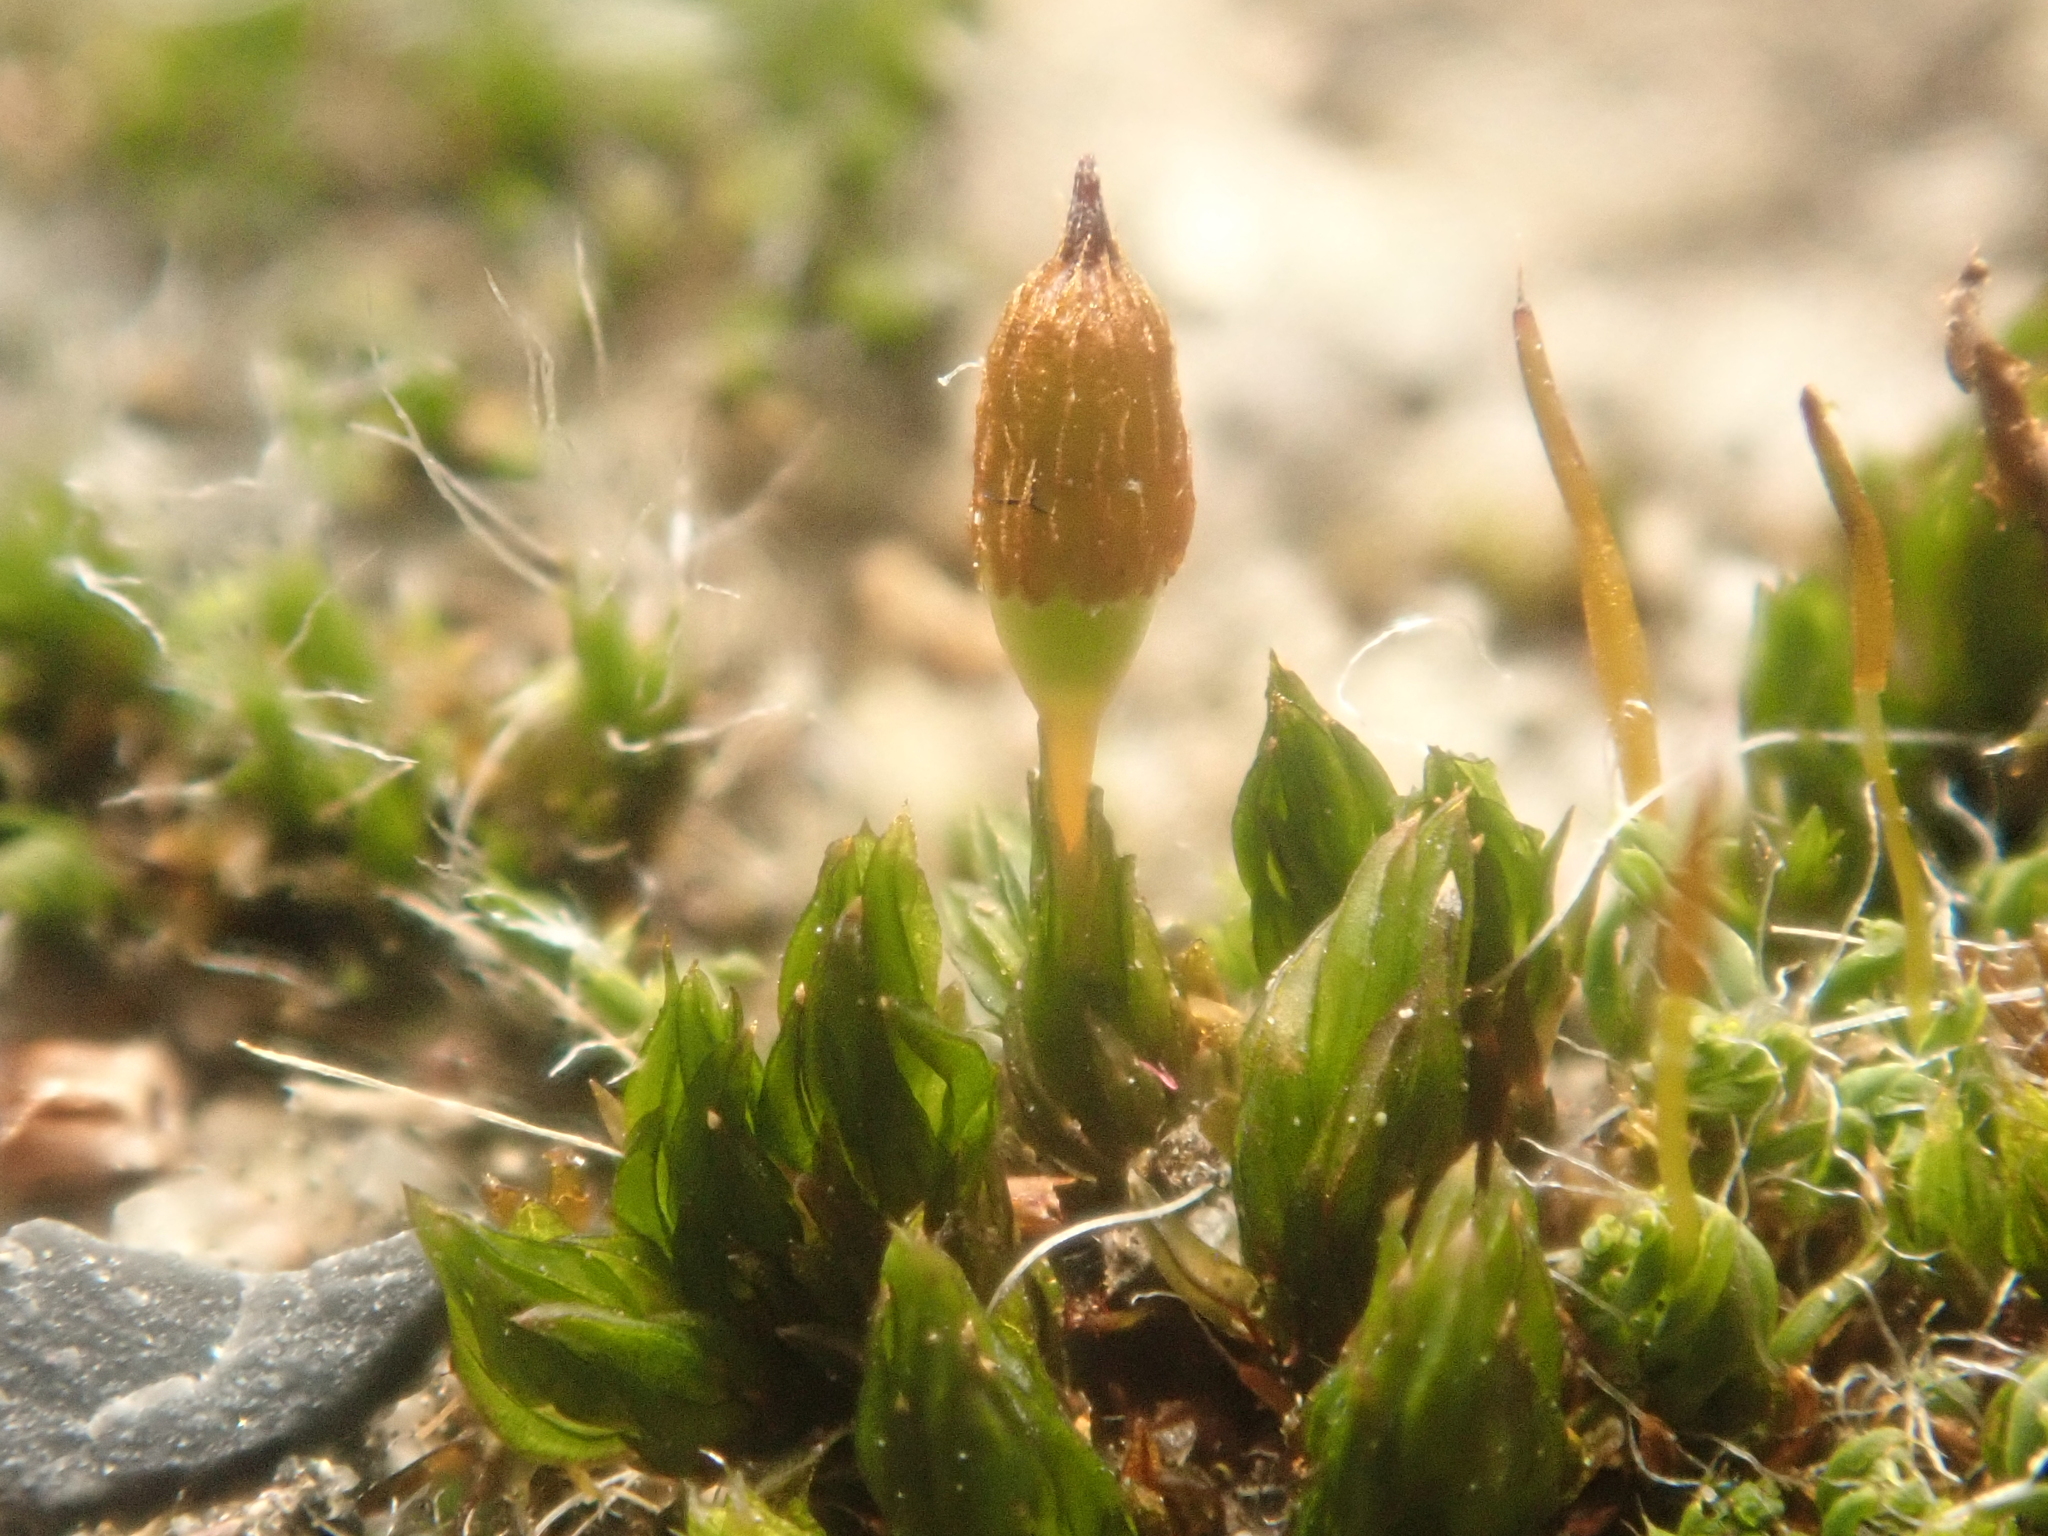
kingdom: Plantae
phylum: Bryophyta
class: Bryopsida
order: Orthotrichales
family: Orthotrichaceae
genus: Orthotrichum
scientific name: Orthotrichum anomalum
